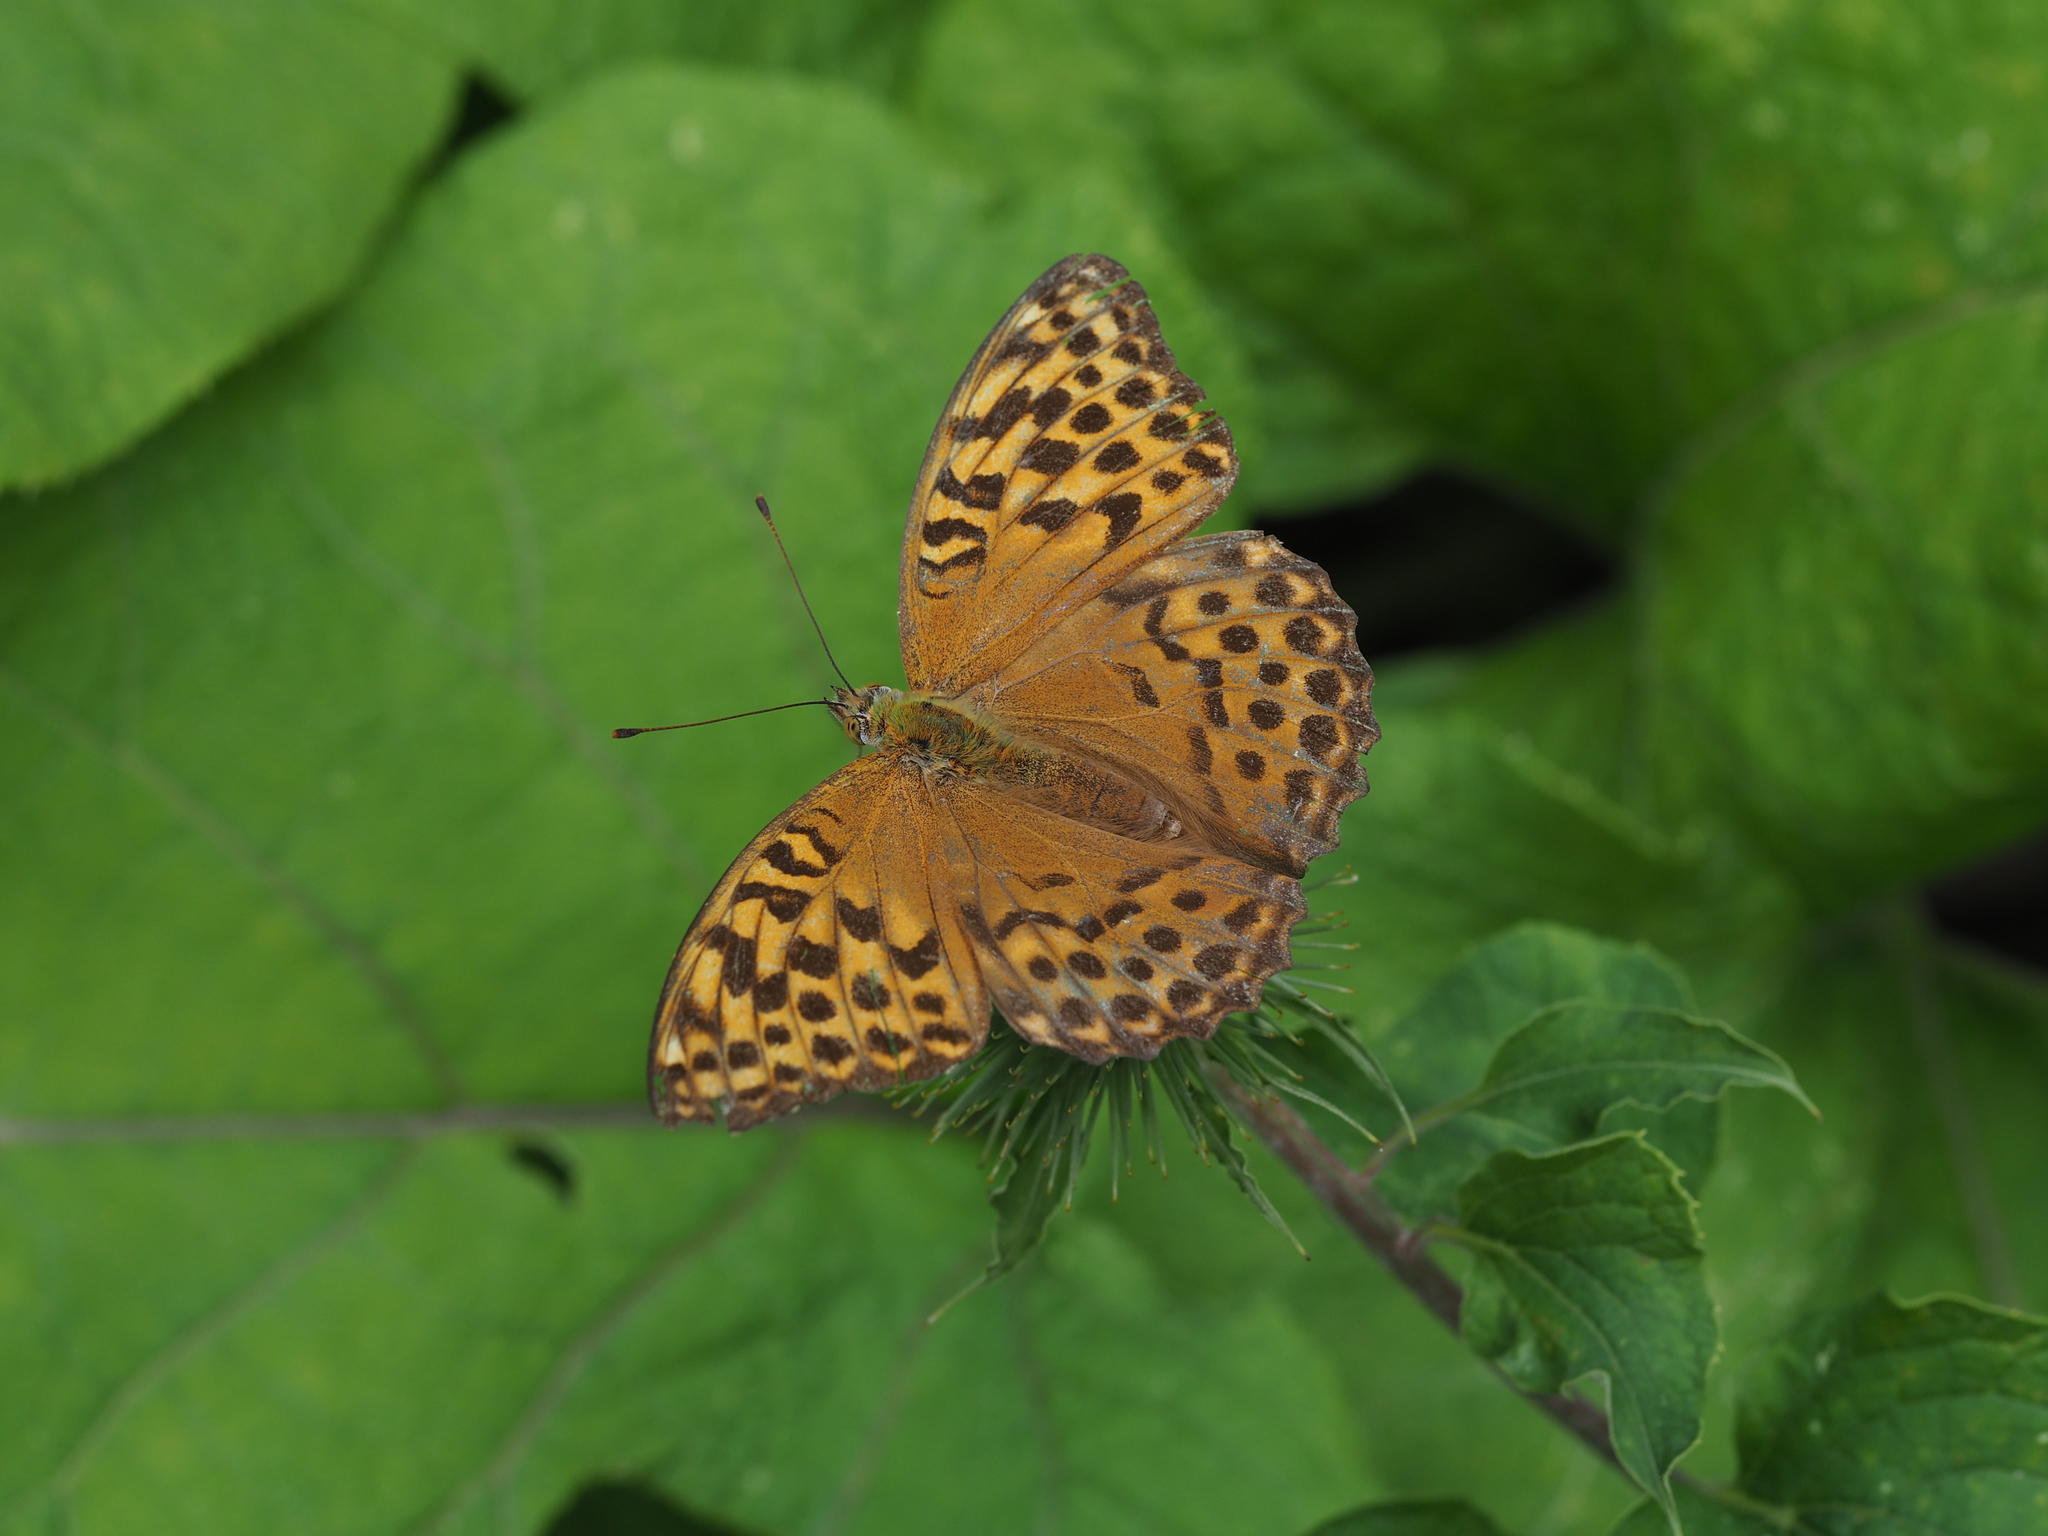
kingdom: Animalia
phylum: Arthropoda
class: Insecta
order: Lepidoptera
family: Nymphalidae
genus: Argynnis
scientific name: Argynnis paphia
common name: Silver-washed fritillary
